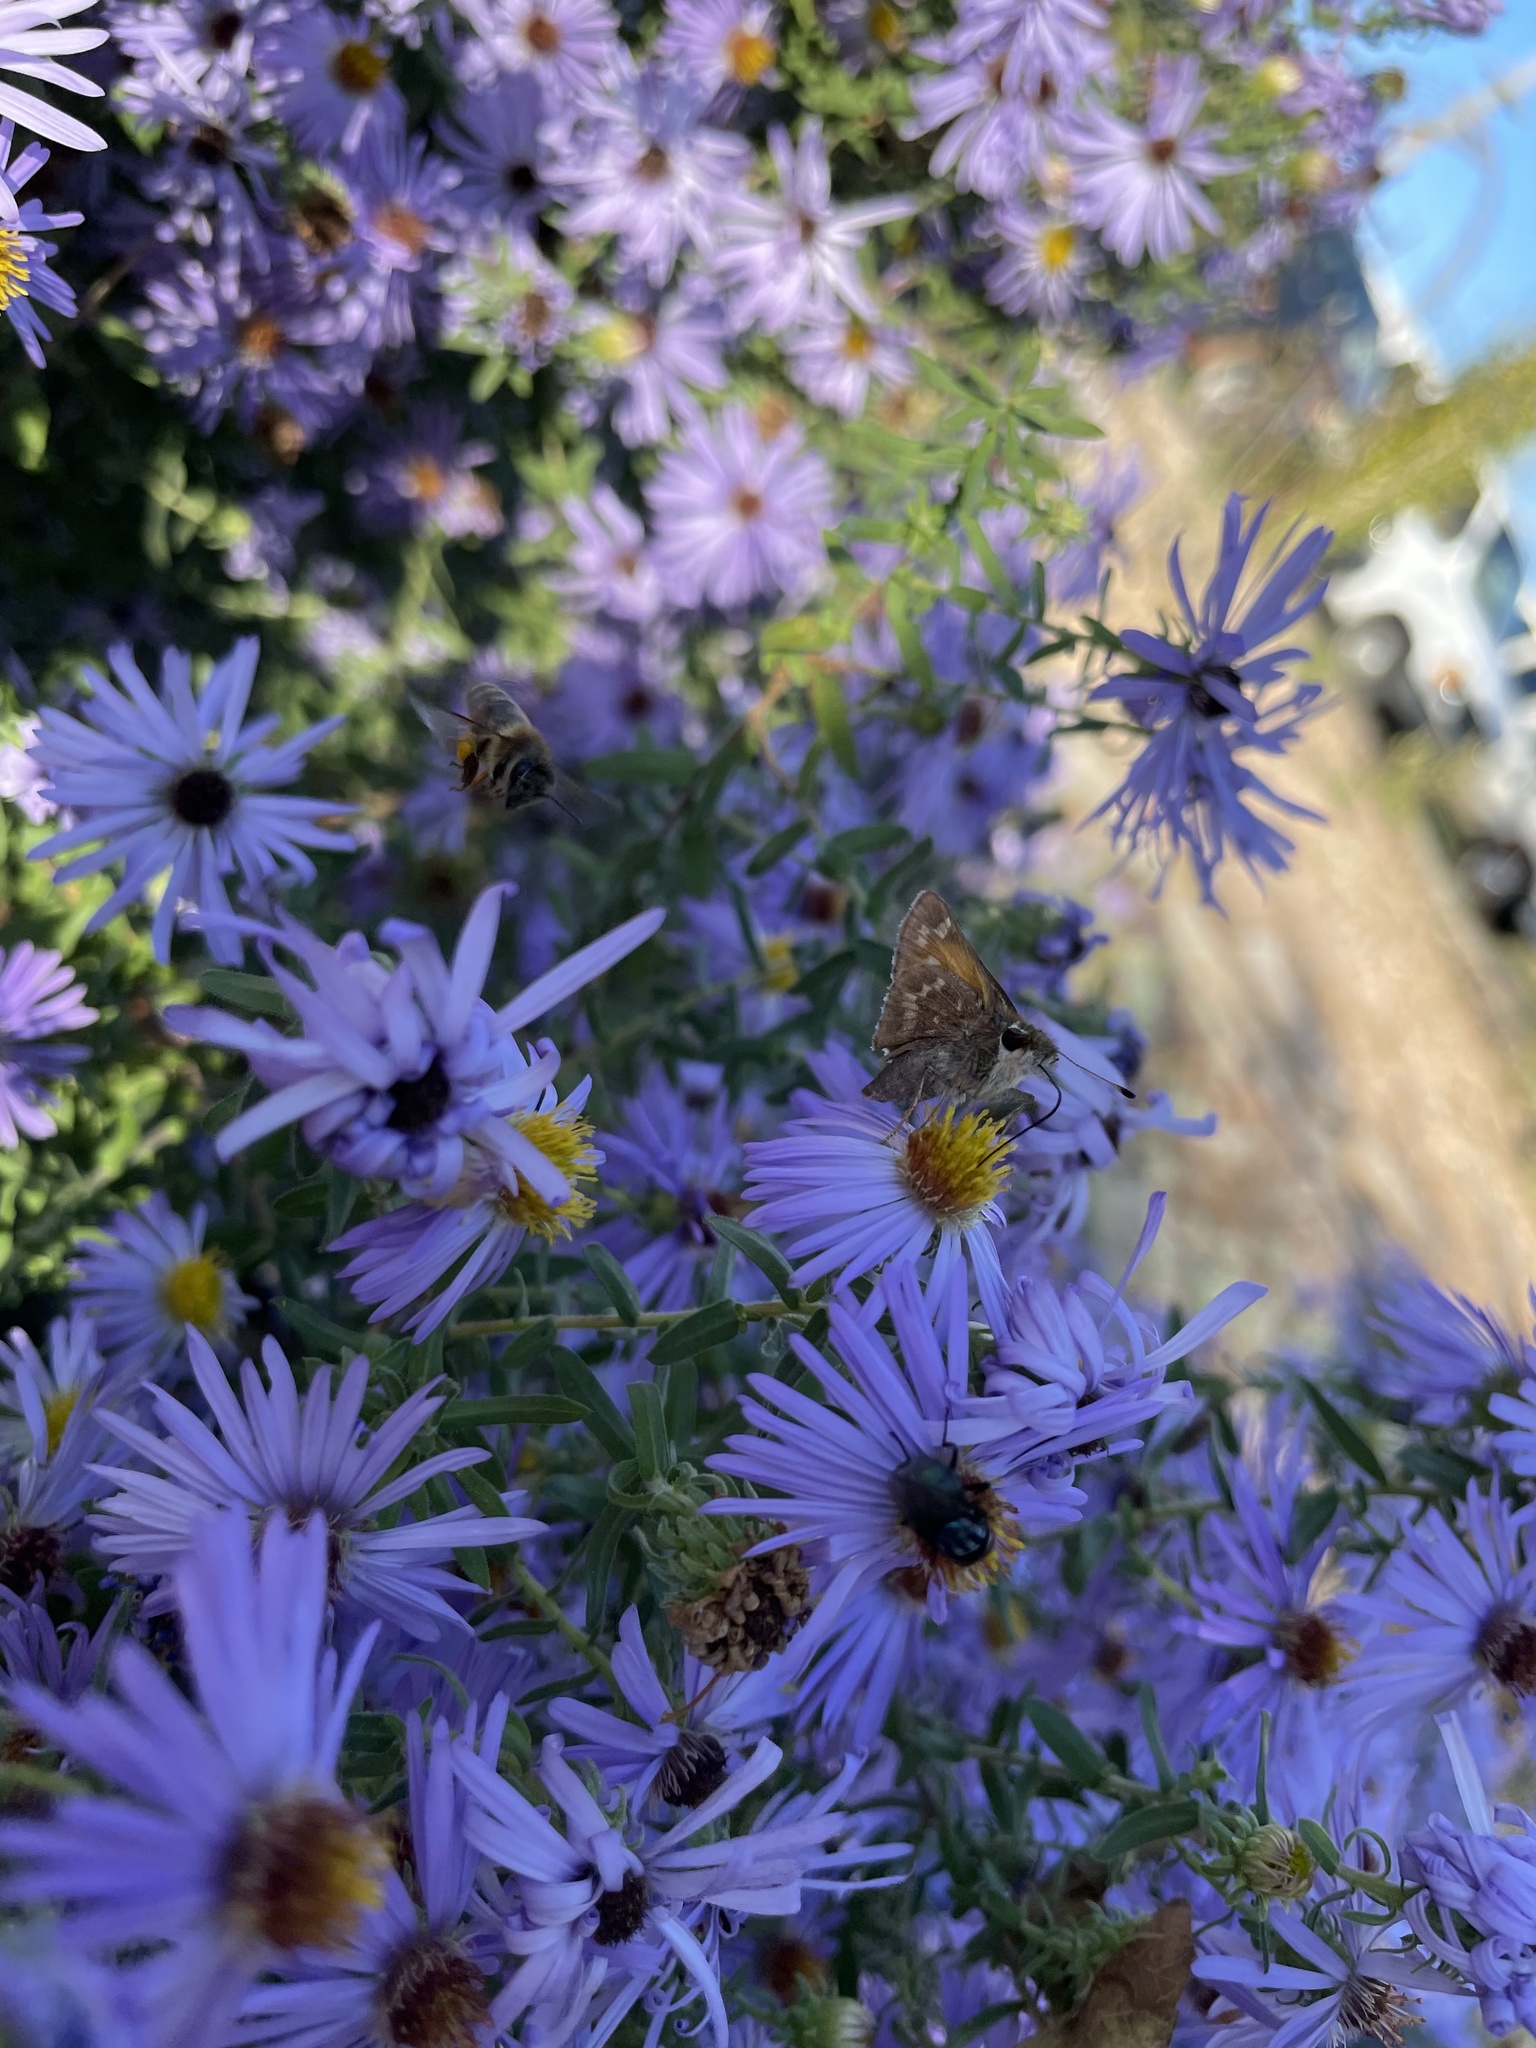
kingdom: Animalia
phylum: Arthropoda
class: Insecta
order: Lepidoptera
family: Hesperiidae
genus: Atalopedes
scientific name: Atalopedes
